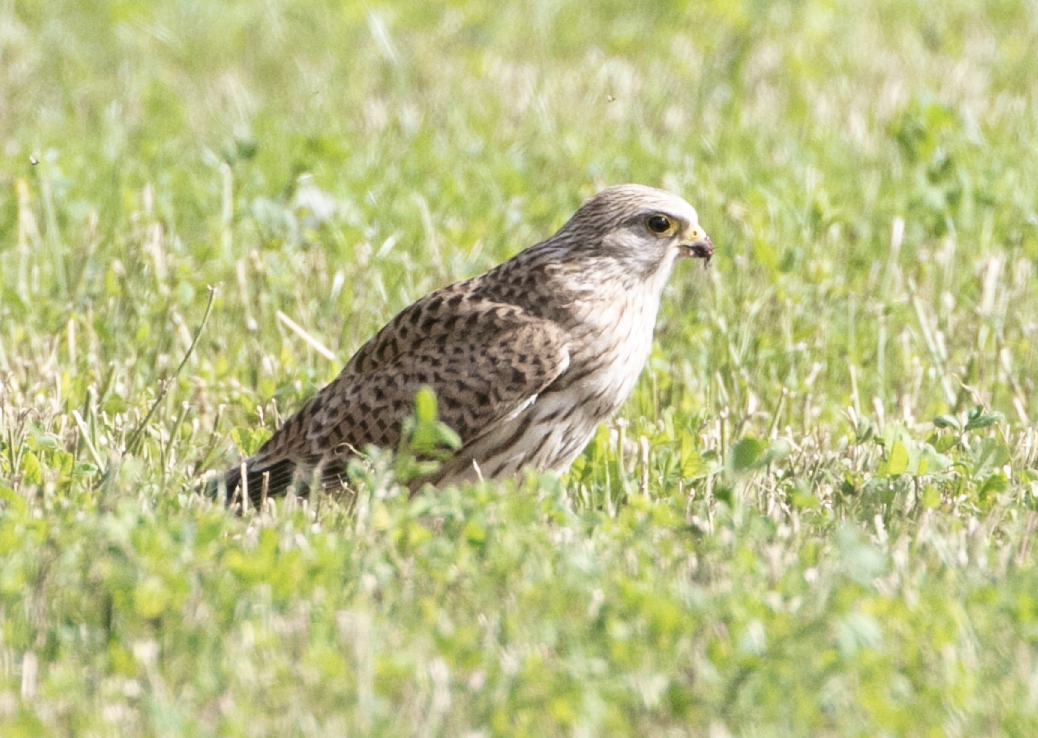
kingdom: Animalia
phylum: Chordata
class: Aves
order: Falconiformes
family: Falconidae
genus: Falco
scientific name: Falco tinnunculus
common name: Common kestrel
